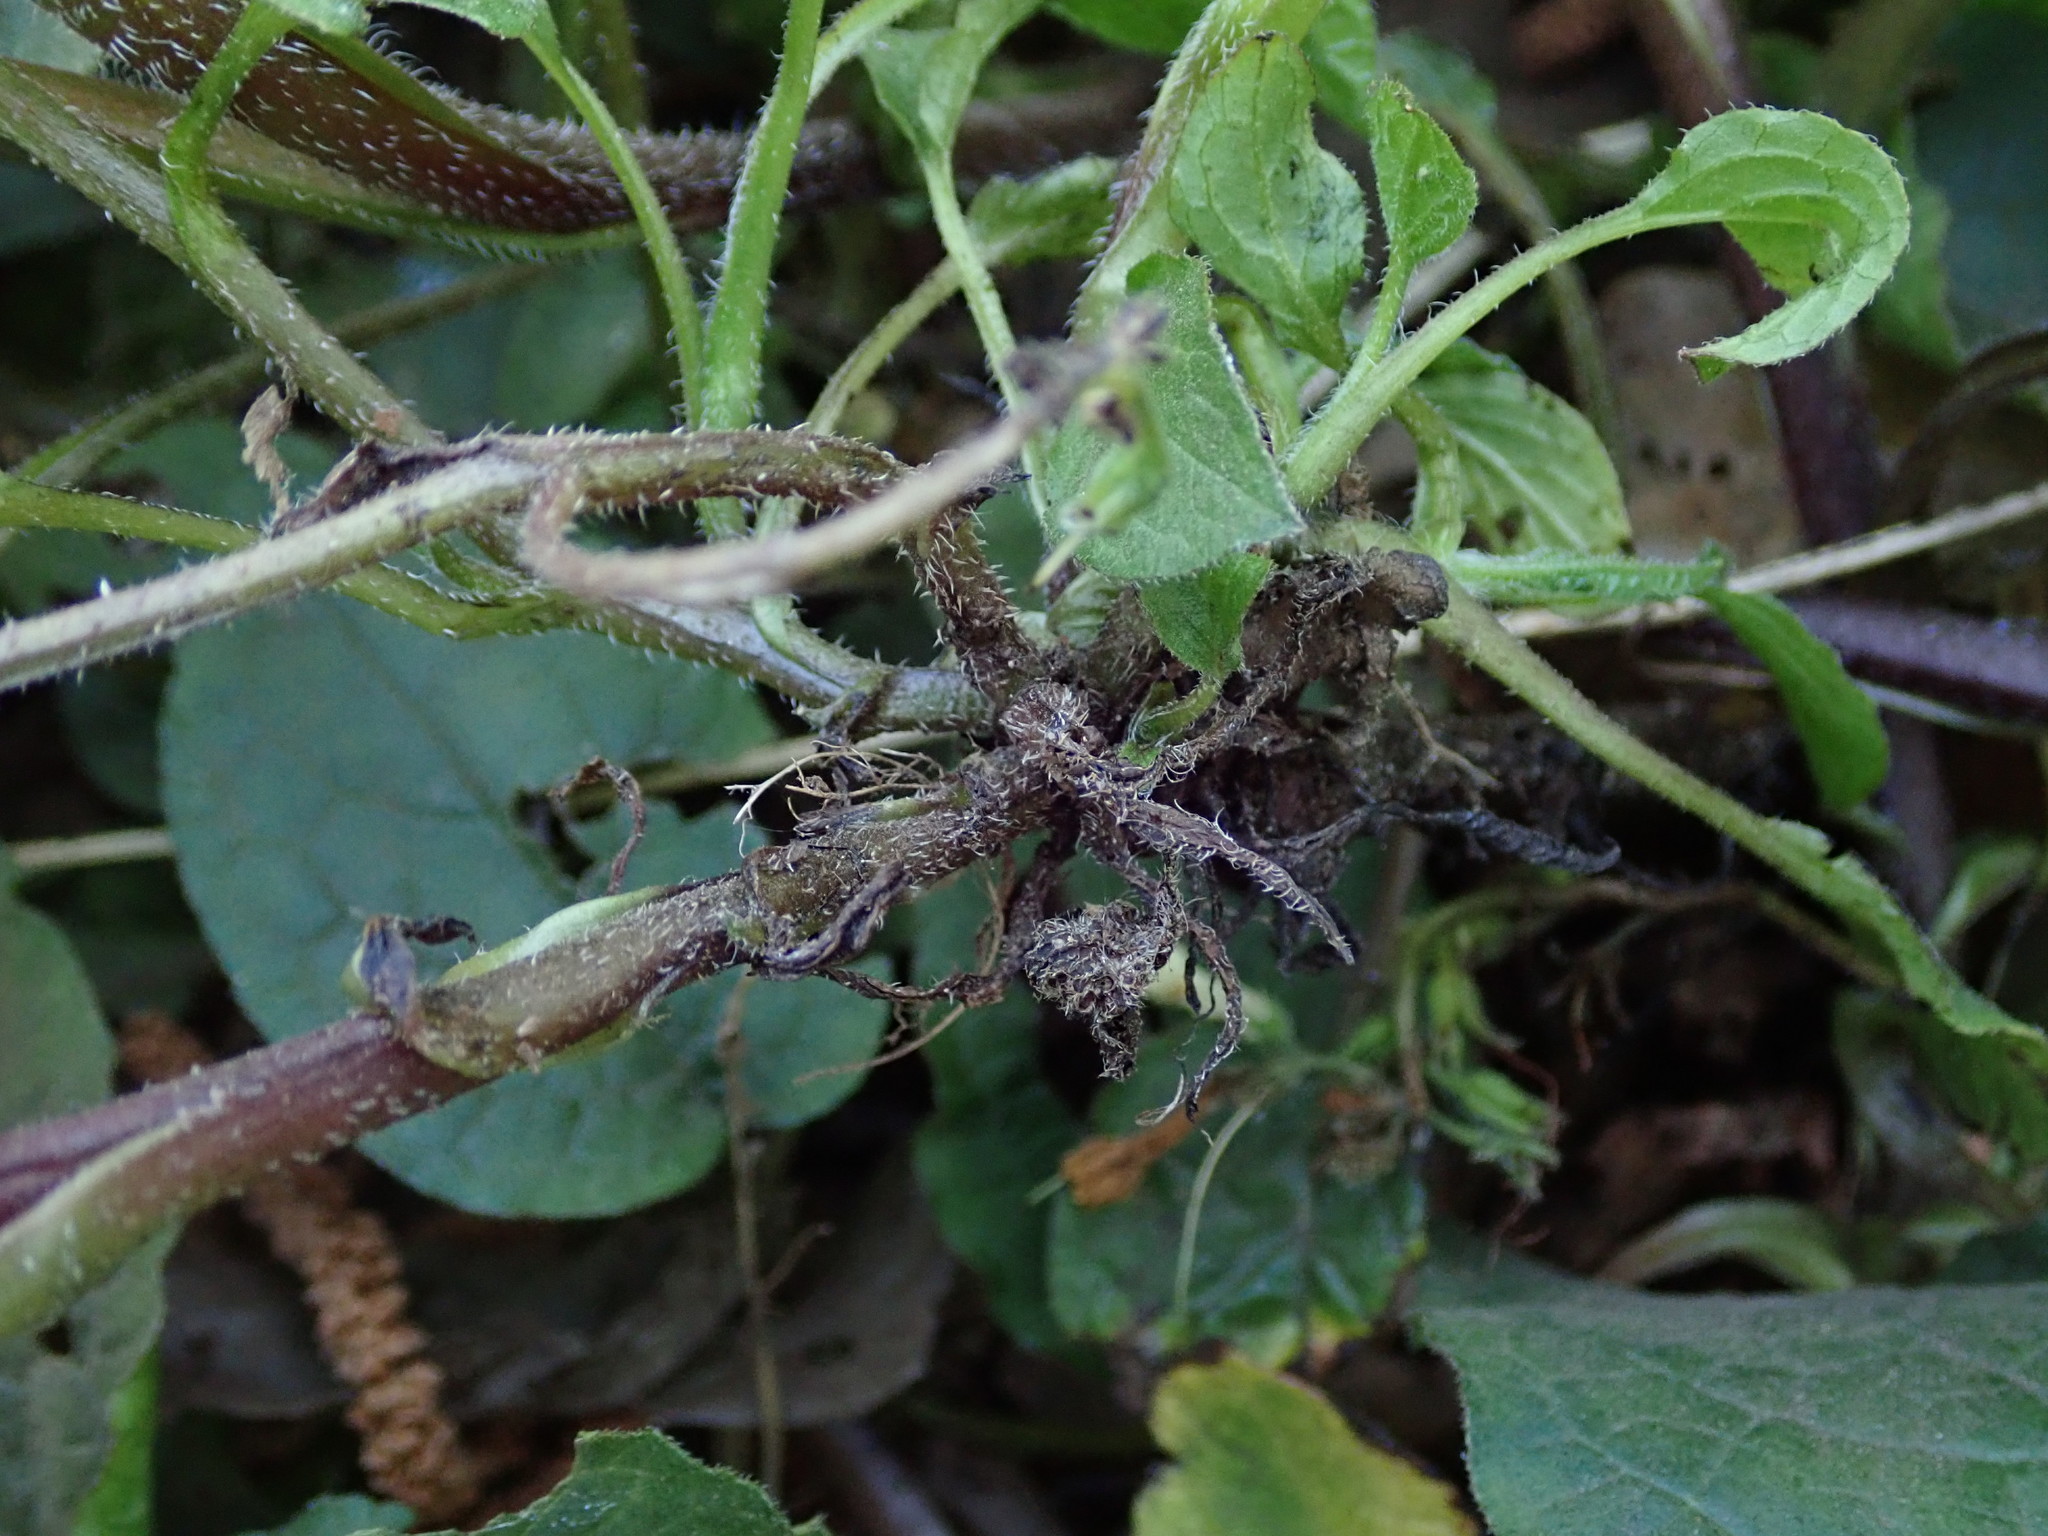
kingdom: Plantae
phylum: Tracheophyta
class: Magnoliopsida
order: Boraginales
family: Boraginaceae
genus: Symphytum
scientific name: Symphytum grandiflorum
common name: Creeping comfrey
